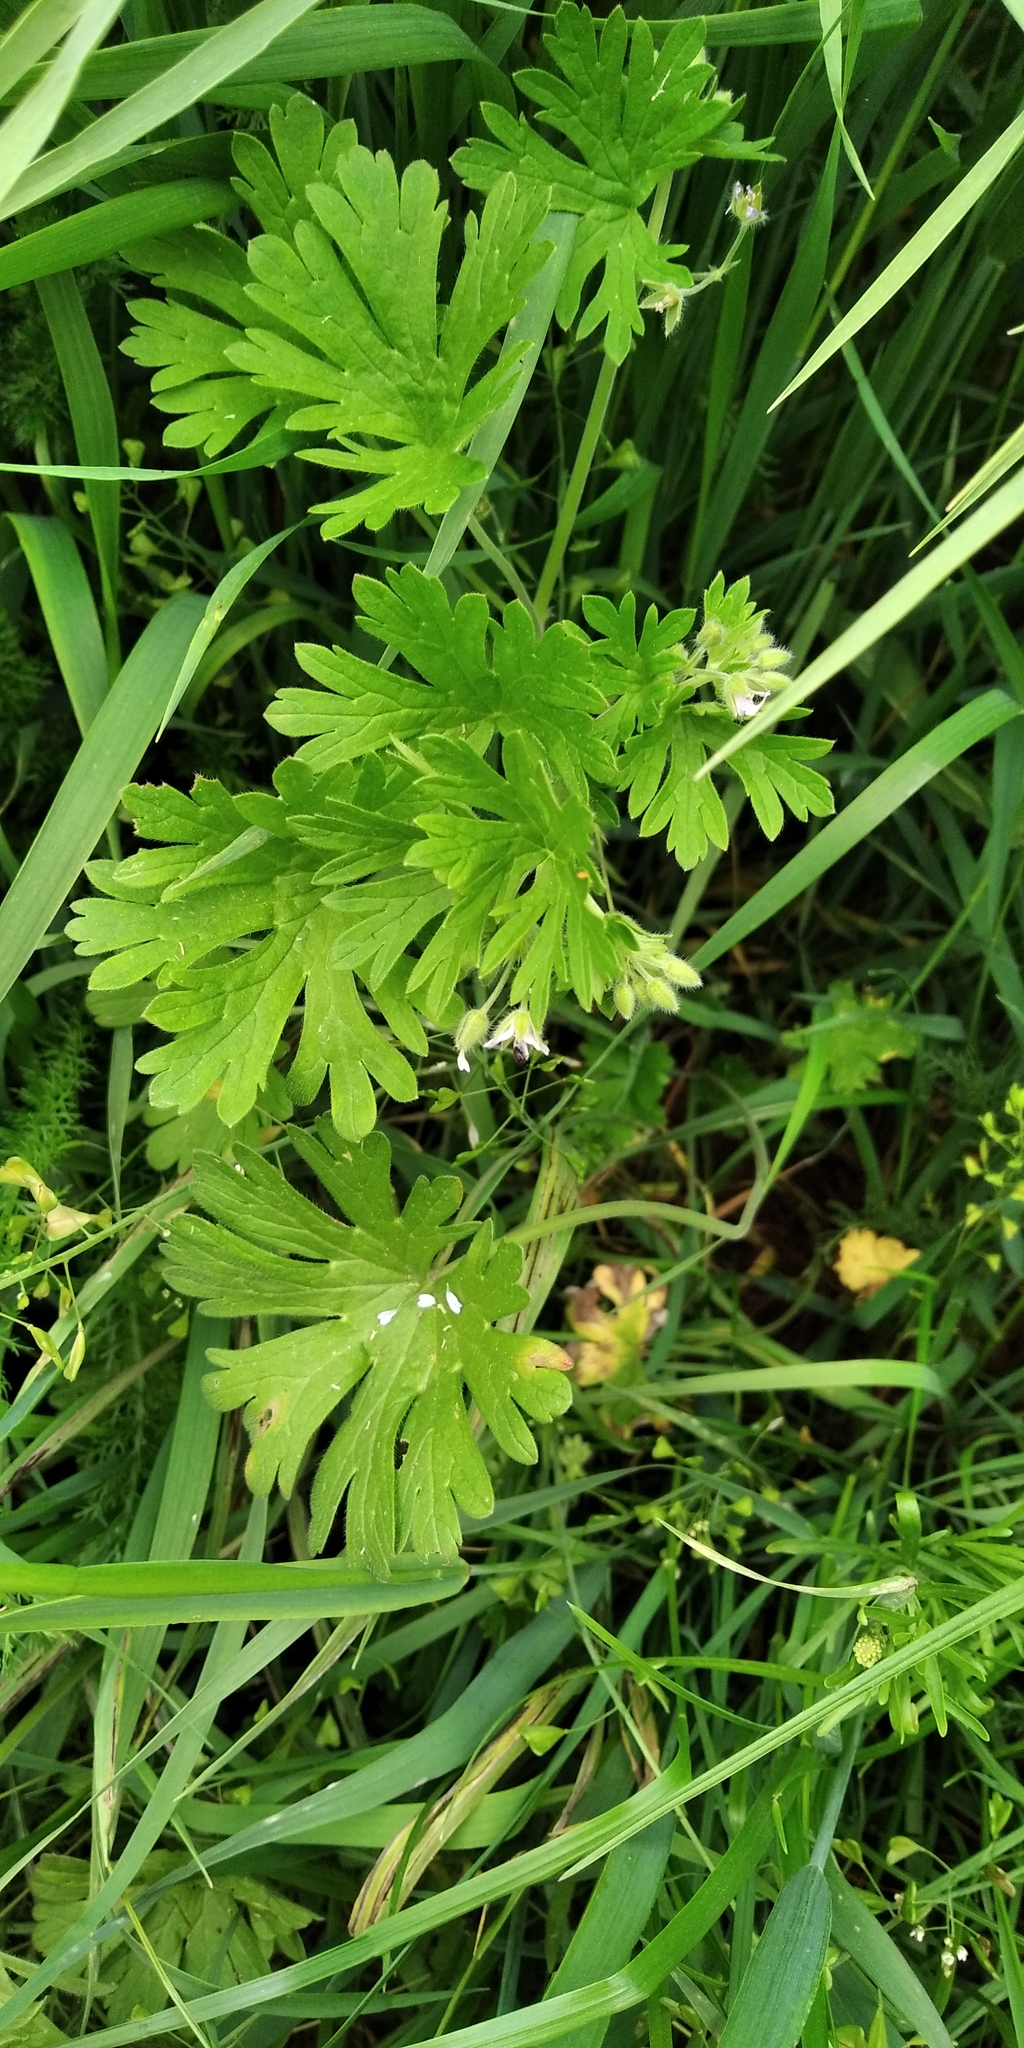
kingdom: Plantae
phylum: Tracheophyta
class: Magnoliopsida
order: Geraniales
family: Geraniaceae
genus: Geranium
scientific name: Geranium pusillum
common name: Small geranium
